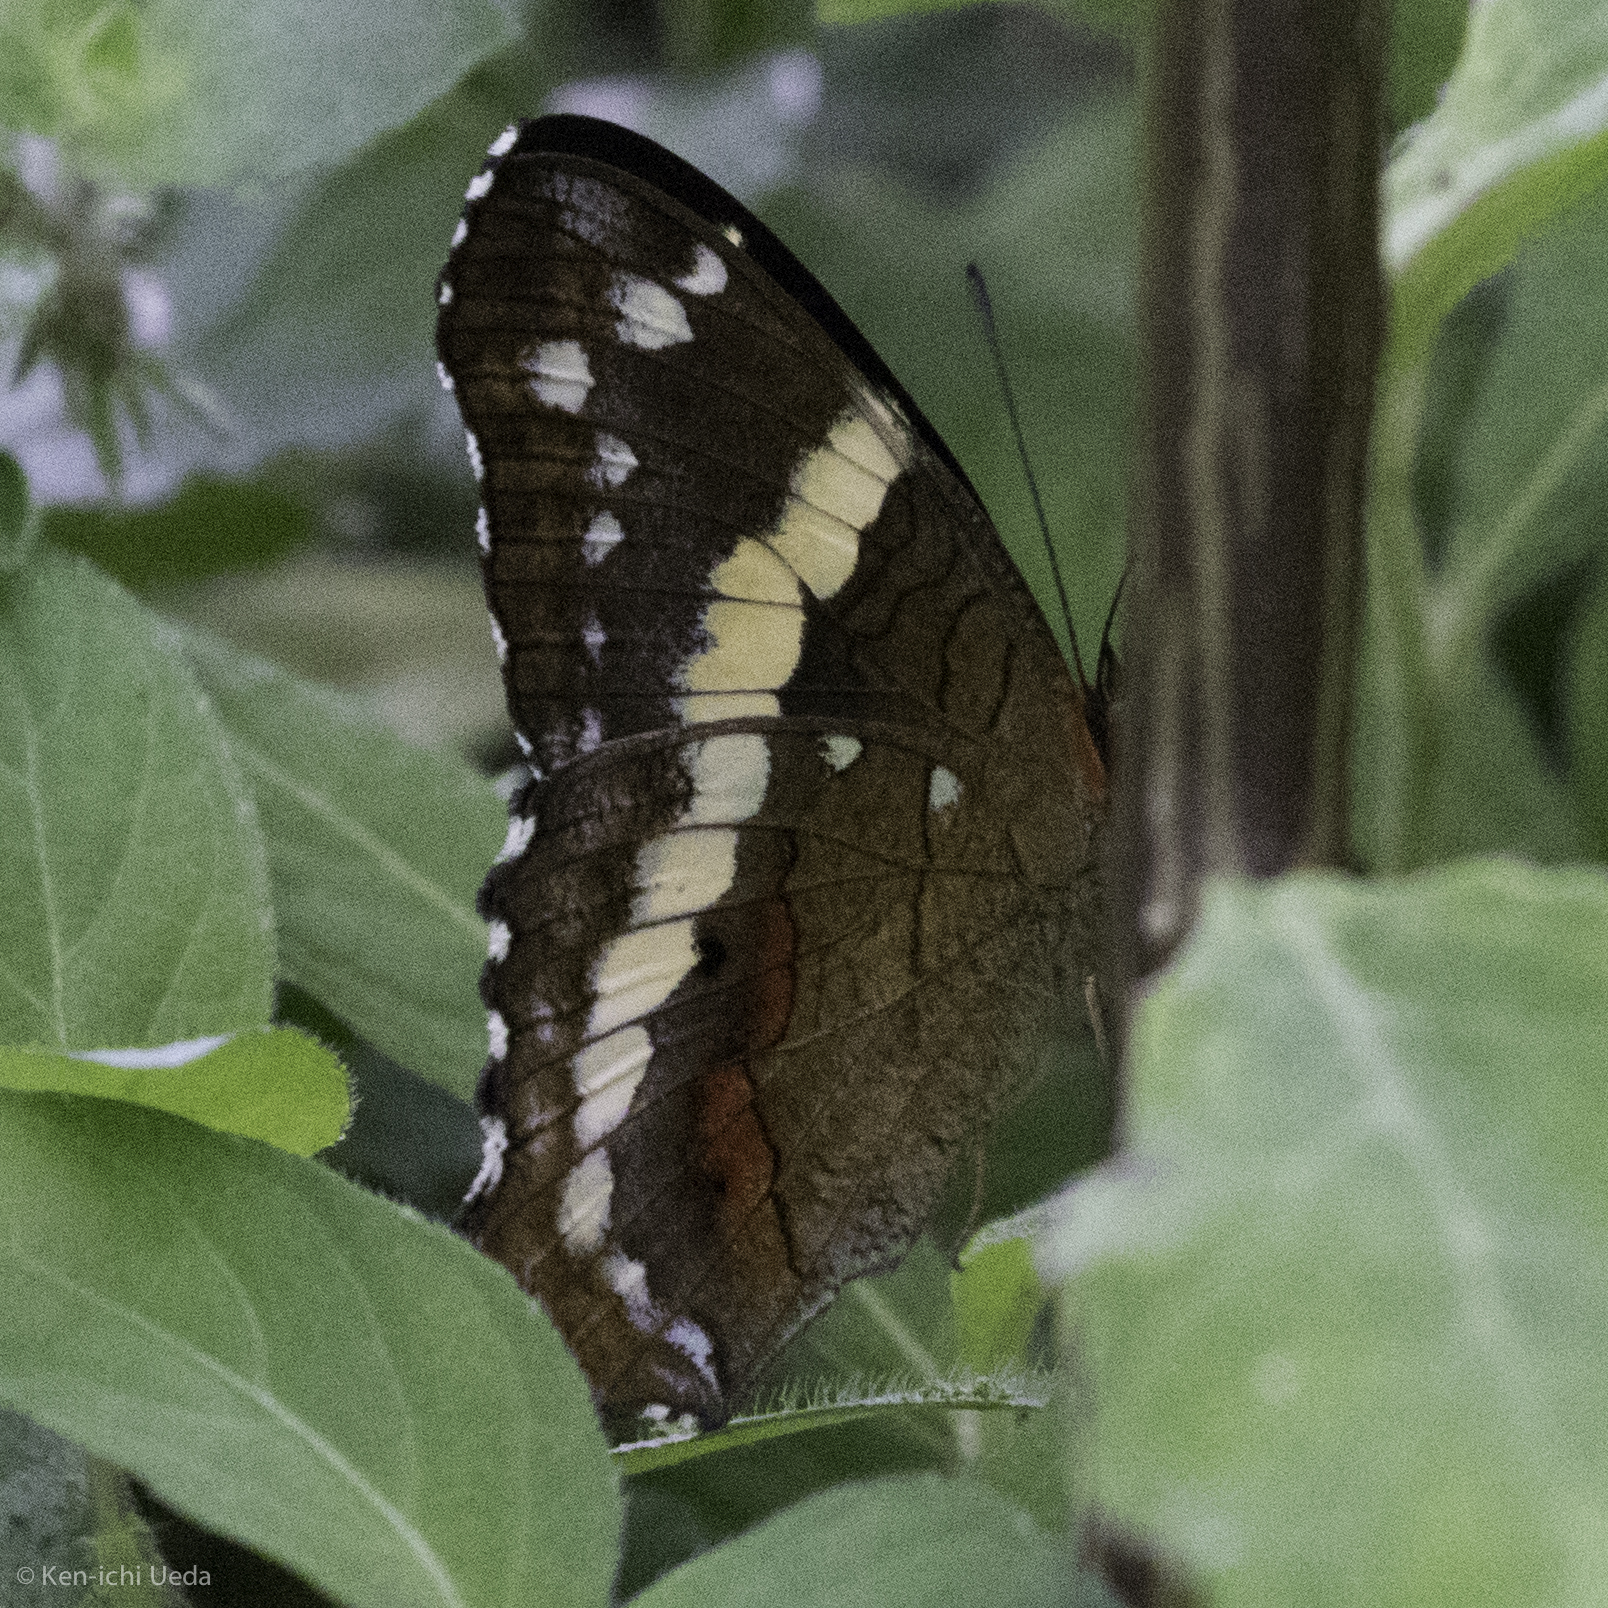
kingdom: Animalia
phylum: Arthropoda
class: Insecta
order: Lepidoptera
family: Nymphalidae
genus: Anartia
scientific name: Anartia fatima
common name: Banded peacock
